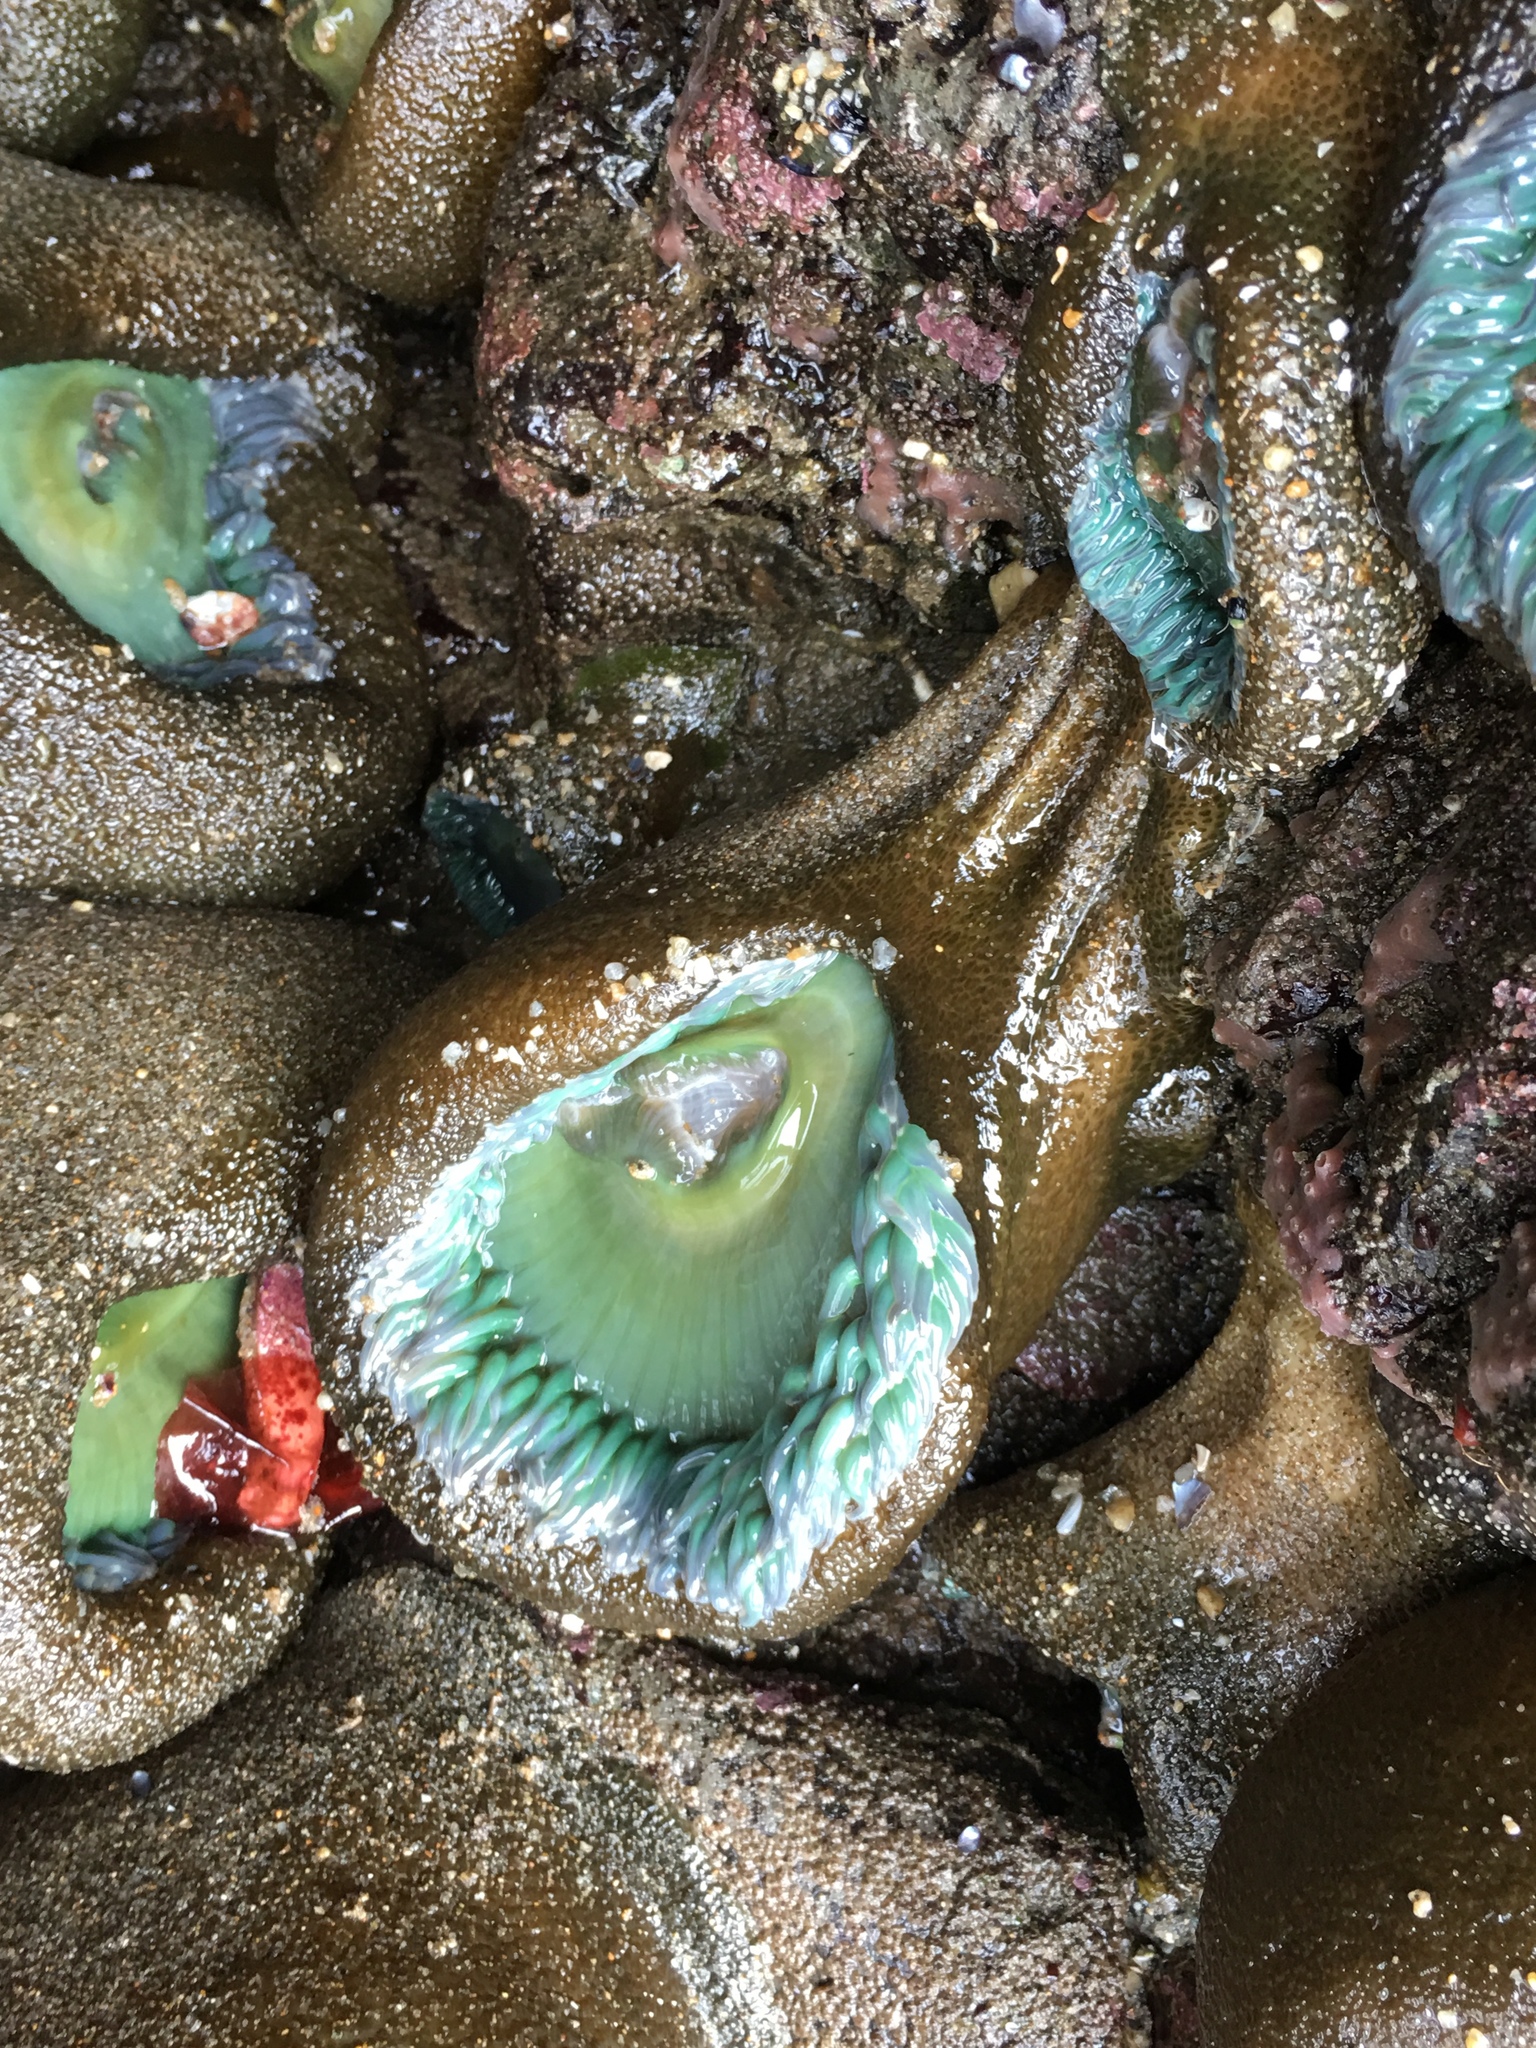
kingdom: Animalia
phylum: Cnidaria
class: Anthozoa
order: Actiniaria
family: Actiniidae
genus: Anthopleura
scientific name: Anthopleura xanthogrammica
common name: Giant green anemone
